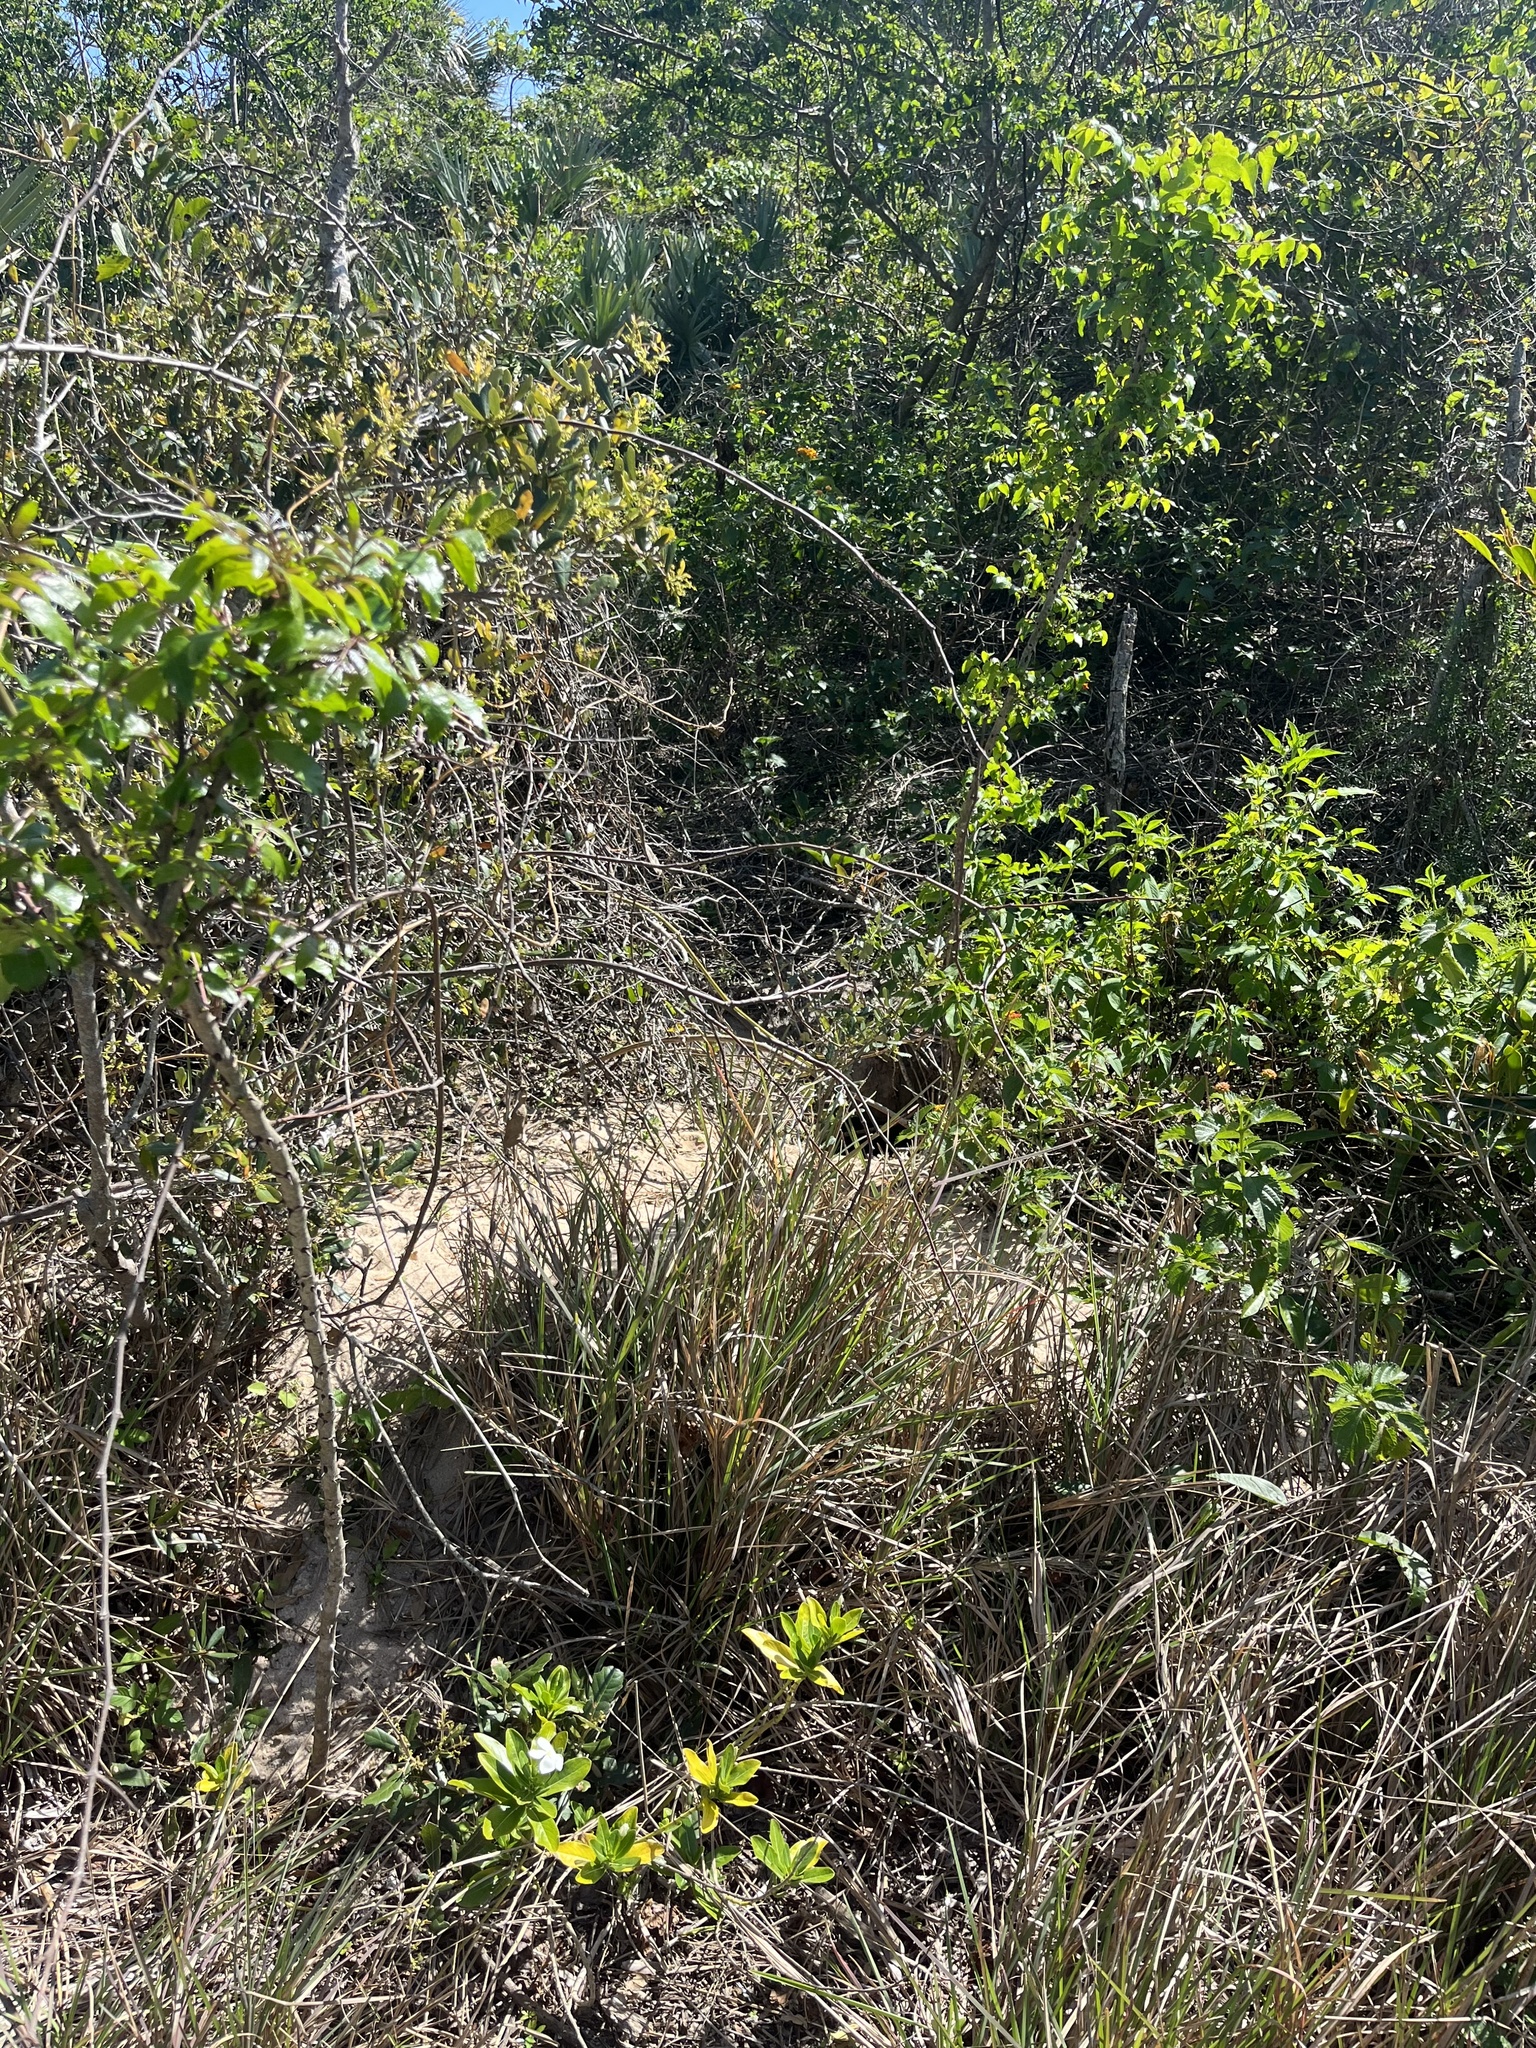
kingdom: Animalia
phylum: Chordata
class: Testudines
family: Testudinidae
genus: Gopherus
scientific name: Gopherus polyphemus
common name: Florida gopher tortoise
